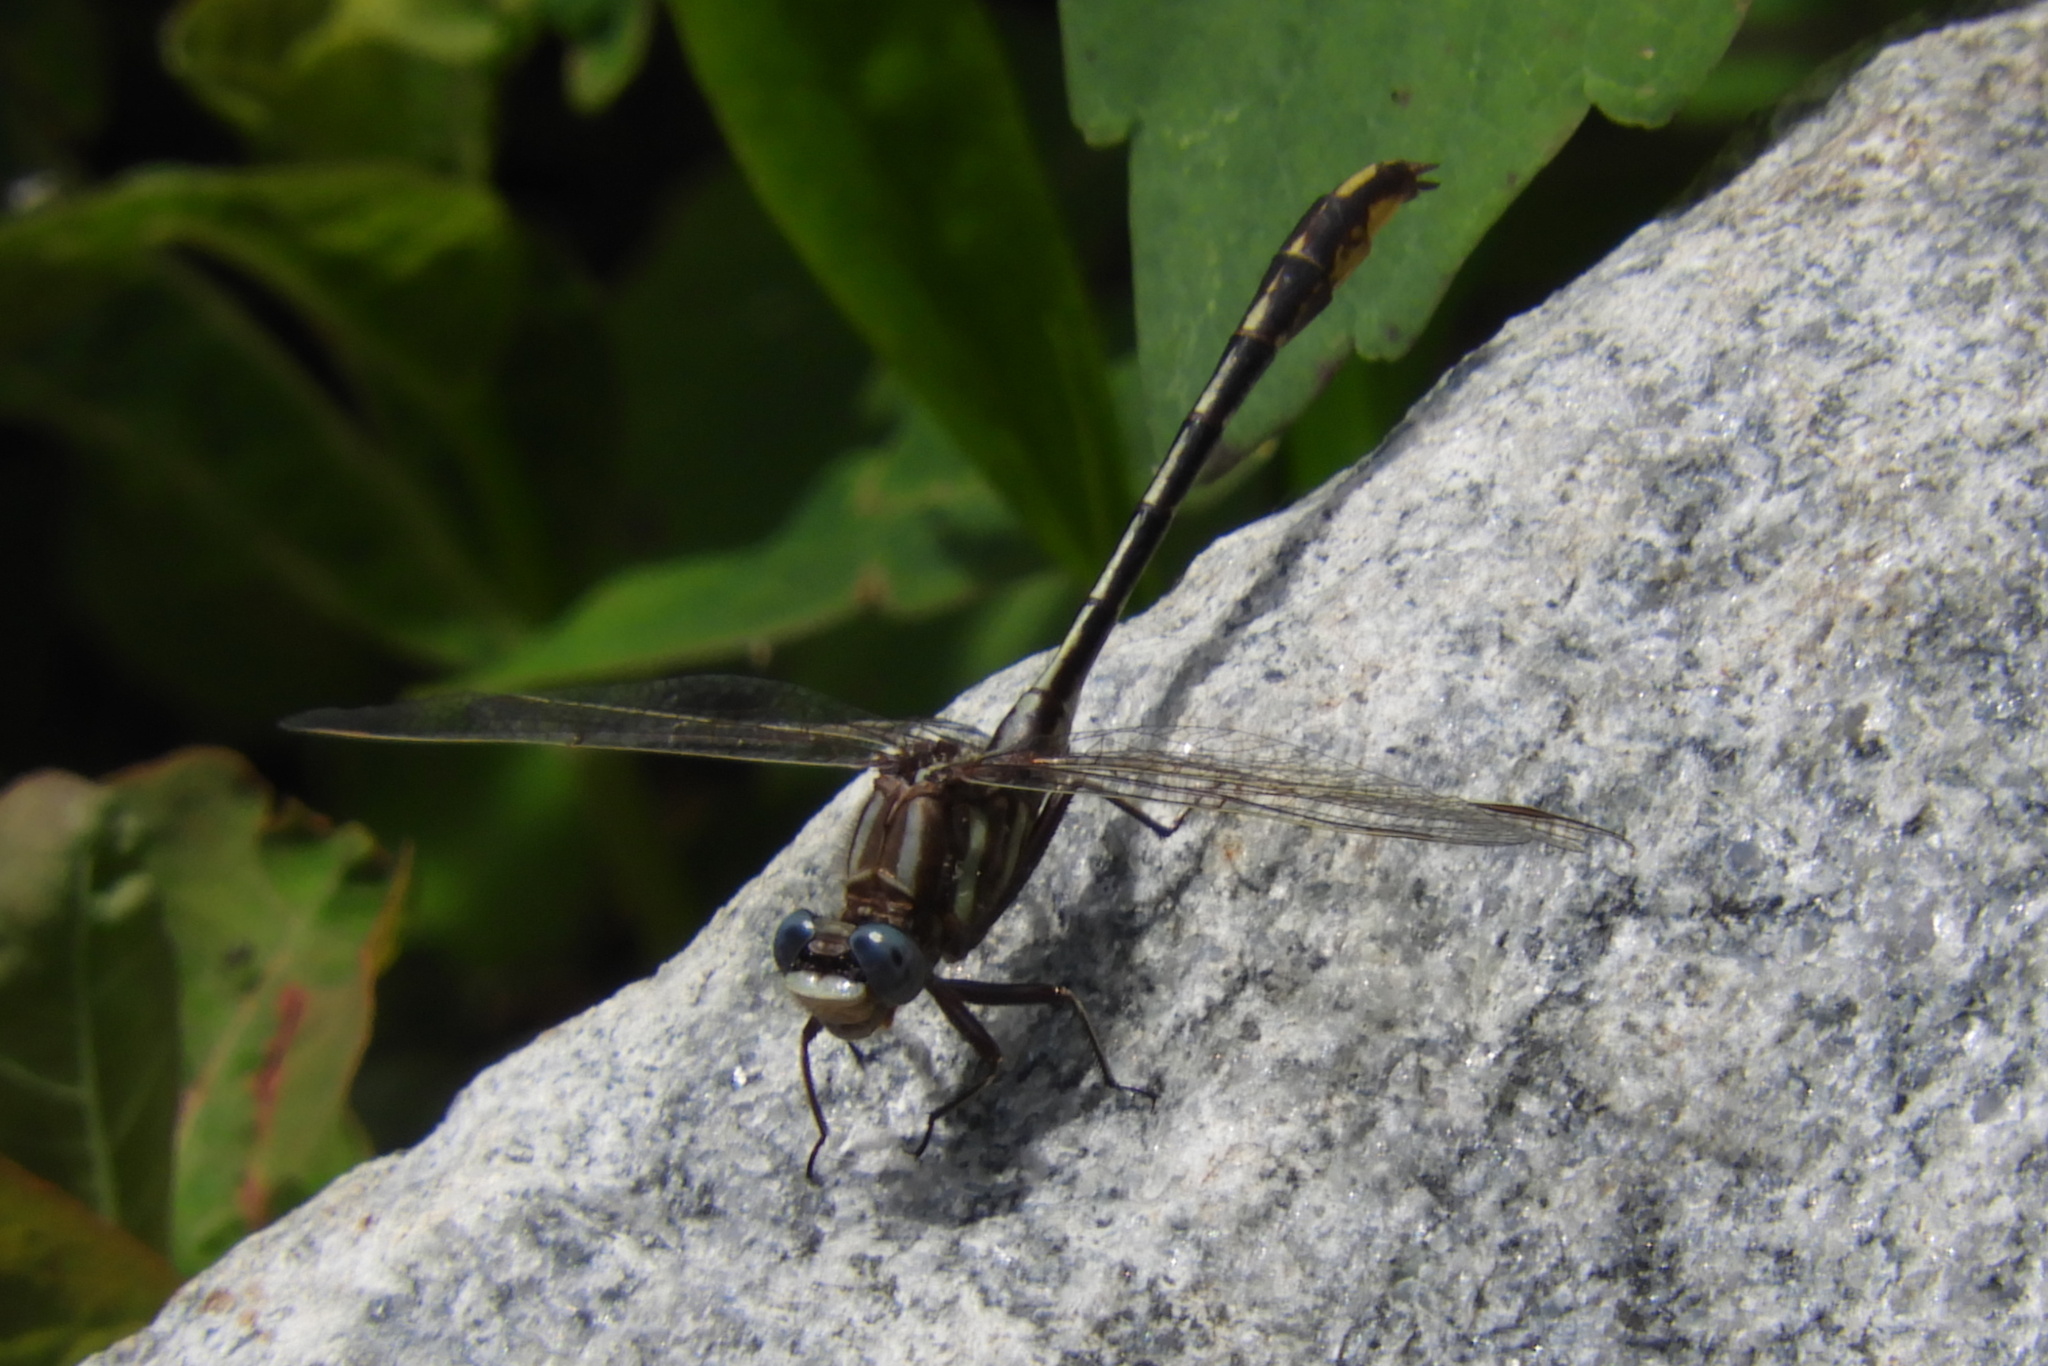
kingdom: Animalia
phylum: Arthropoda
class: Insecta
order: Odonata
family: Gomphidae
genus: Phanogomphus
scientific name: Phanogomphus exilis
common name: Lancet clubtail
